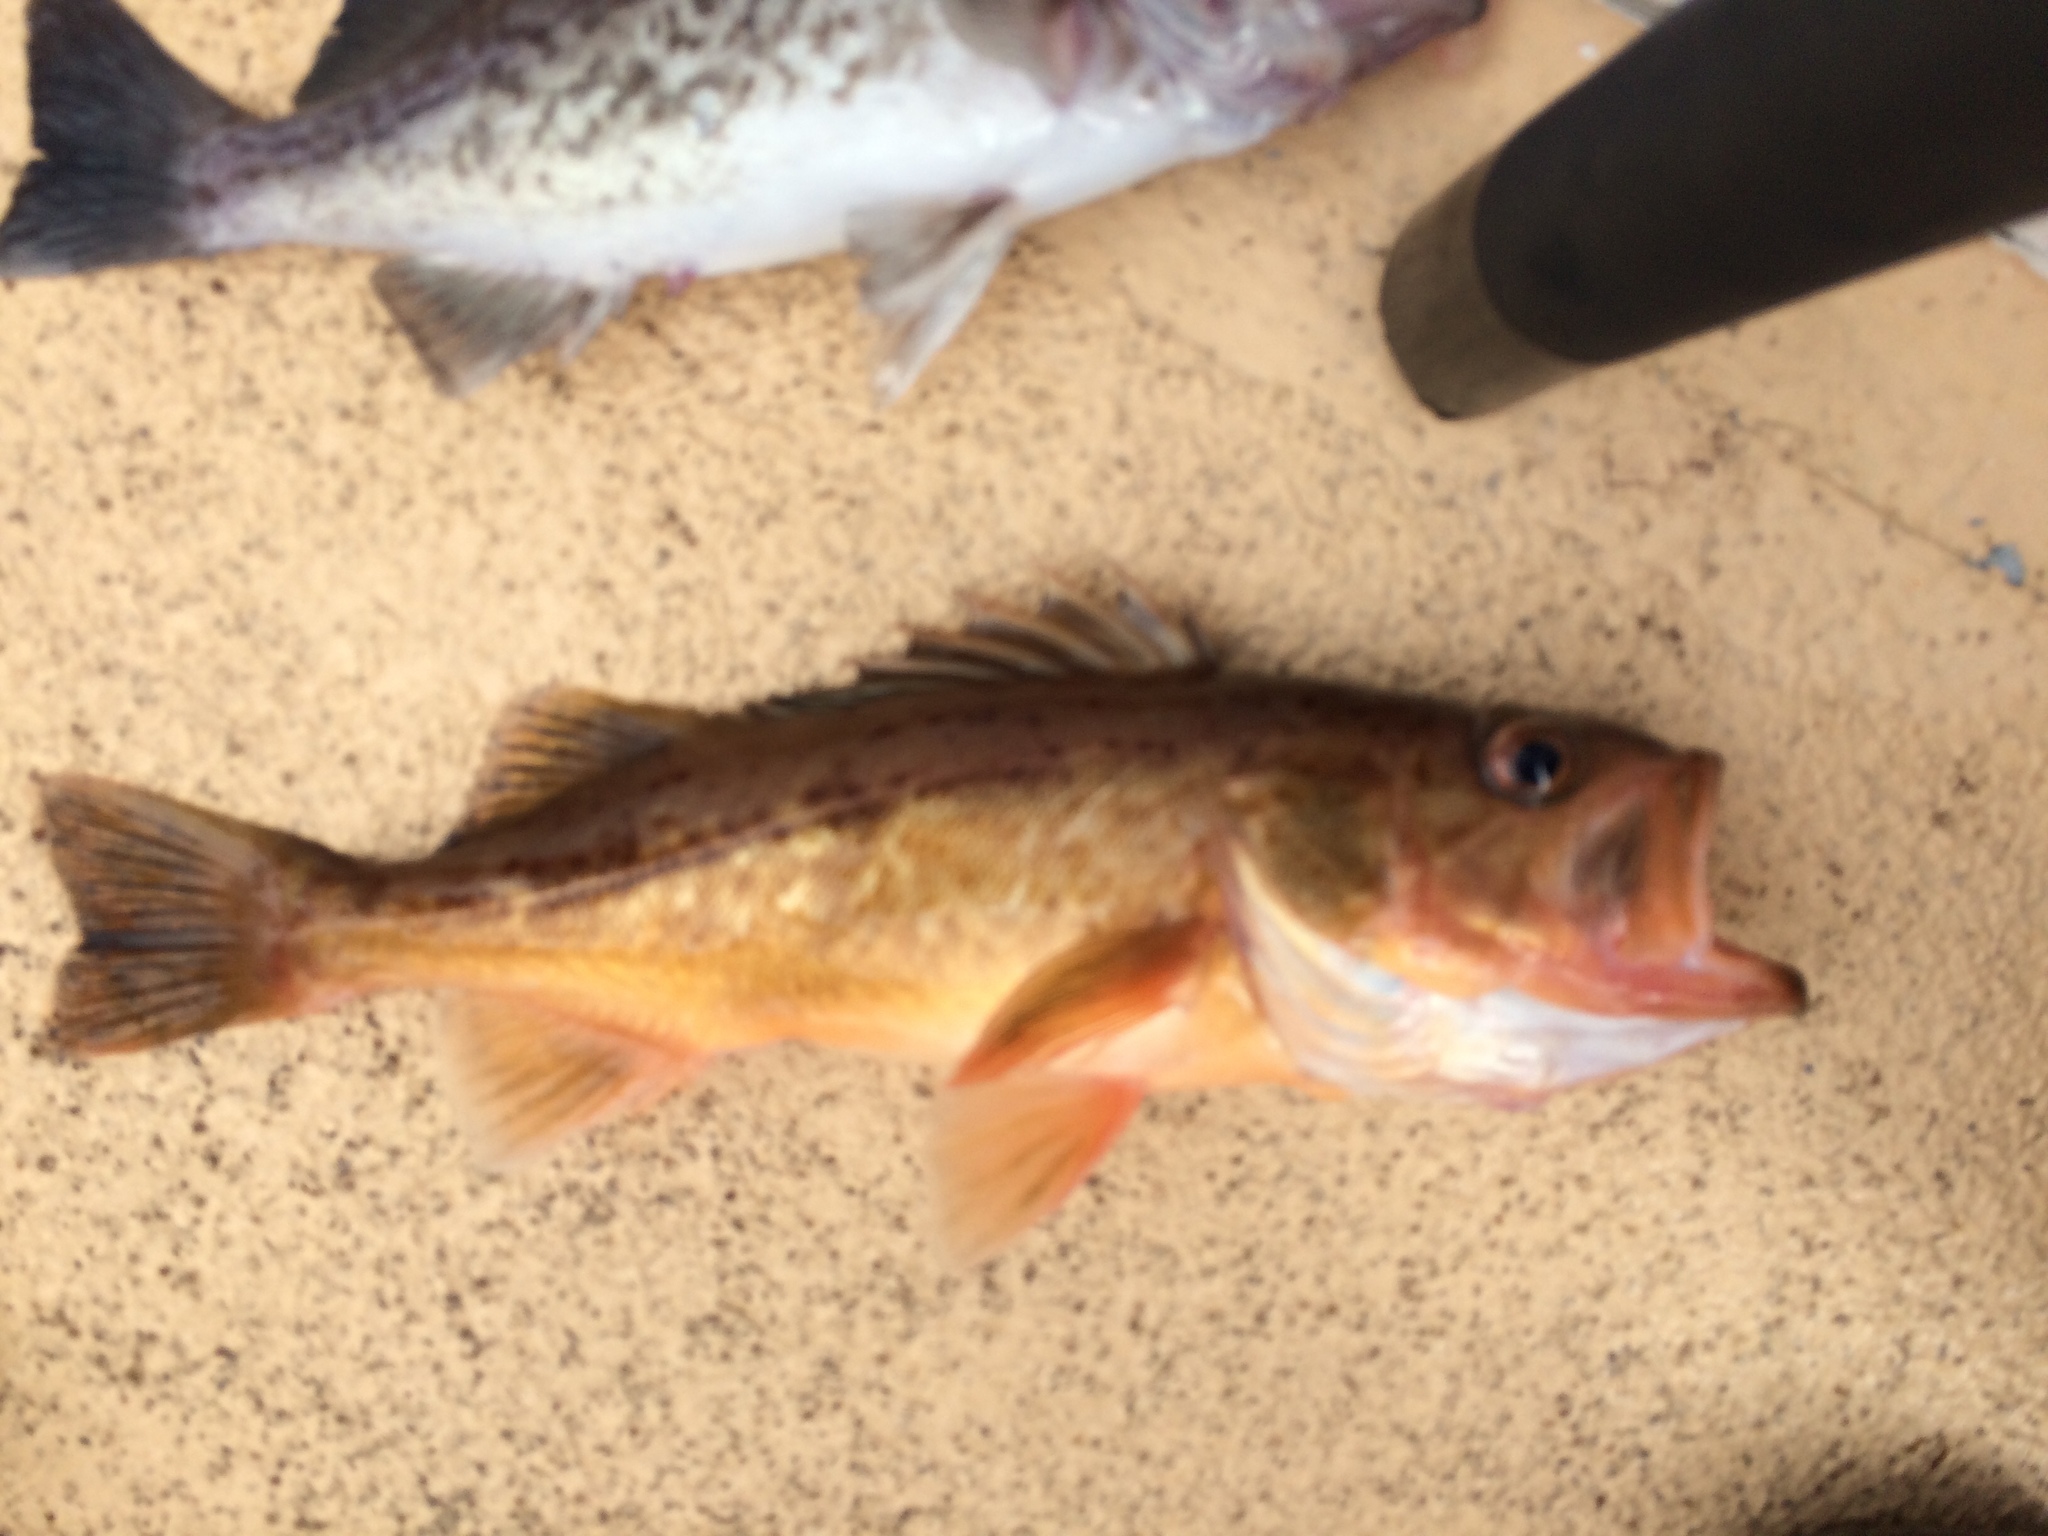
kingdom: Animalia
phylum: Chordata
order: Scorpaeniformes
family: Sebastidae
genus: Sebastes
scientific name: Sebastes paucispinis
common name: Bocaccio
